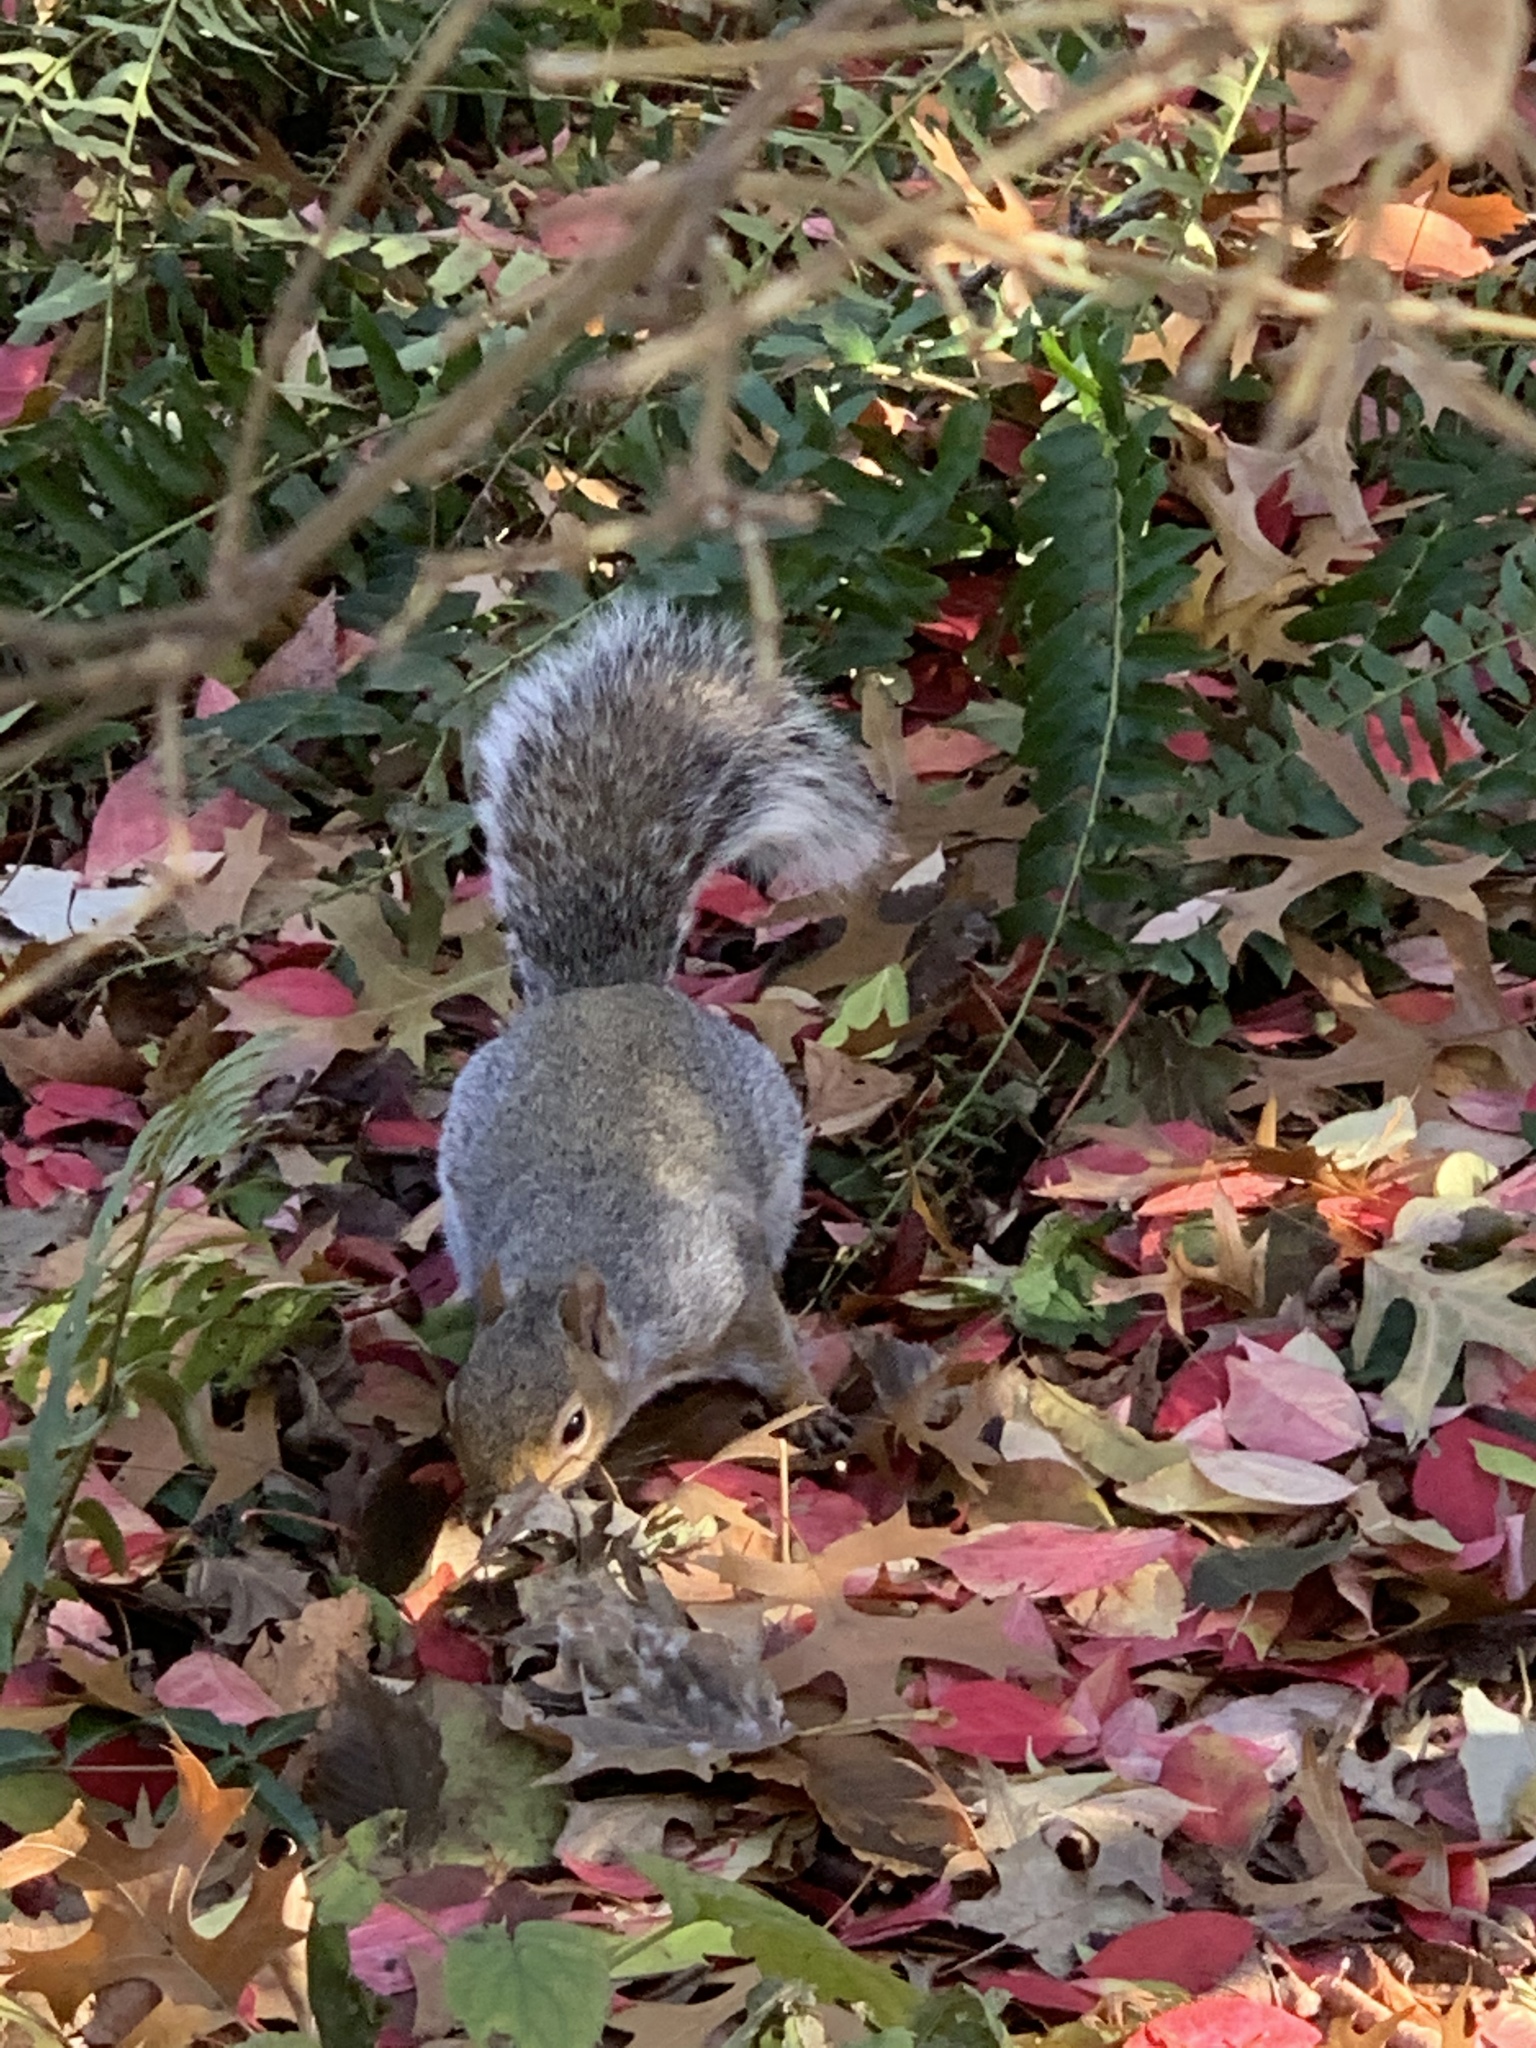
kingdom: Animalia
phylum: Chordata
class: Mammalia
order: Rodentia
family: Sciuridae
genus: Sciurus
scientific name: Sciurus carolinensis
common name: Eastern gray squirrel
